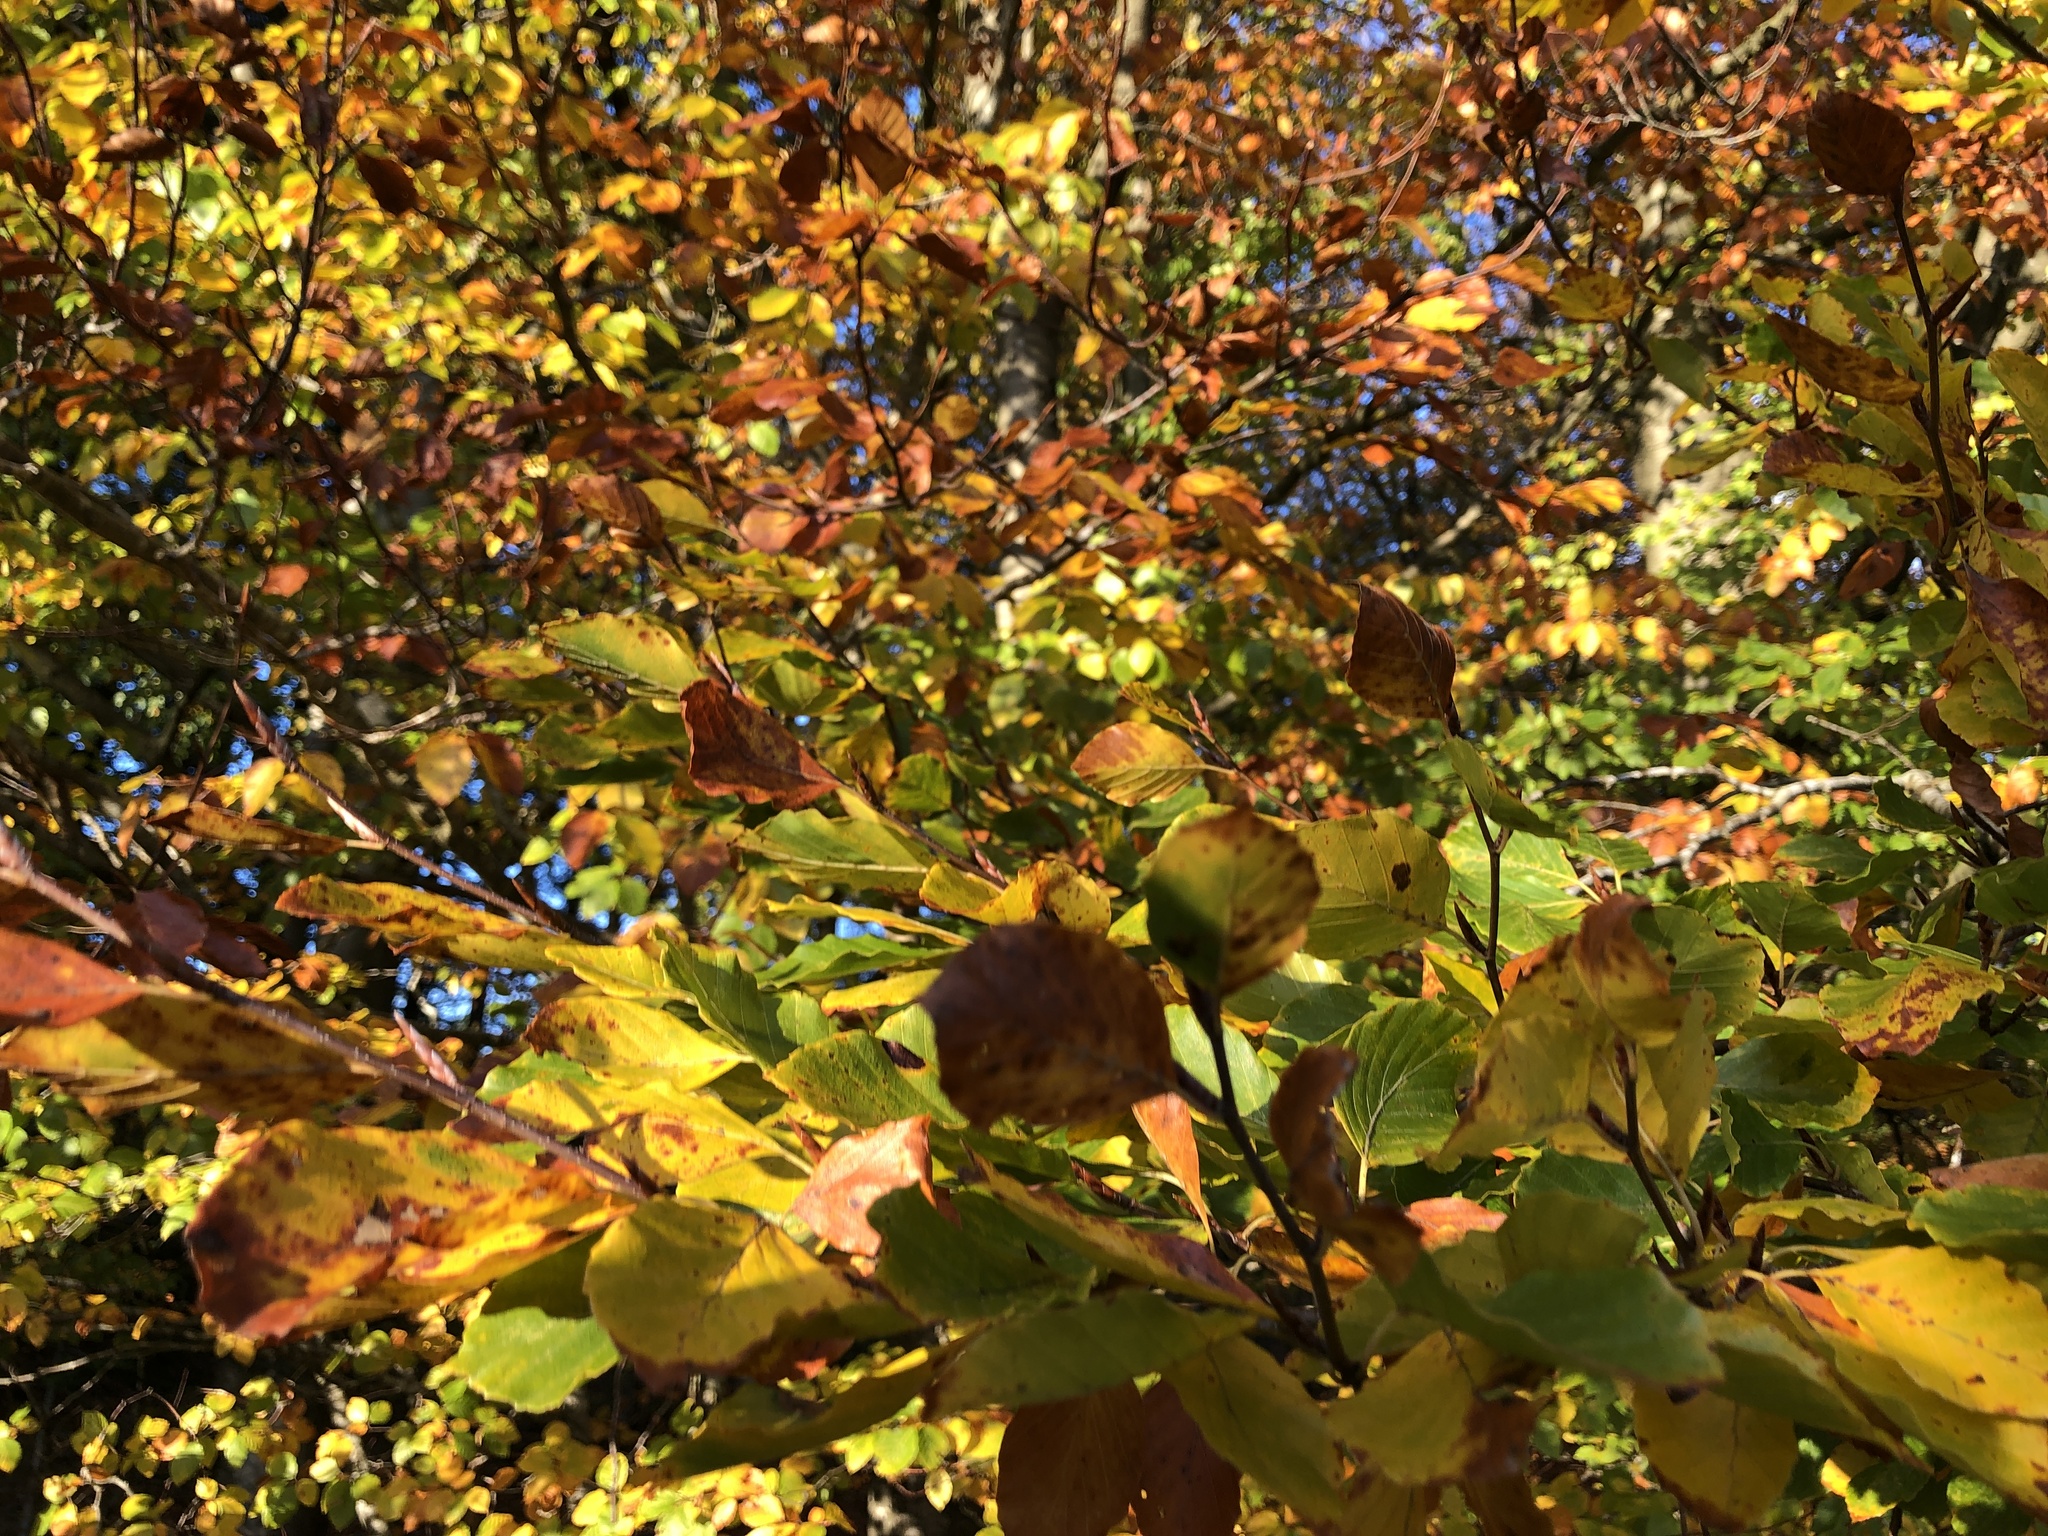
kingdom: Plantae
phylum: Tracheophyta
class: Magnoliopsida
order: Fagales
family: Fagaceae
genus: Fagus
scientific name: Fagus sylvatica
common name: Beech
